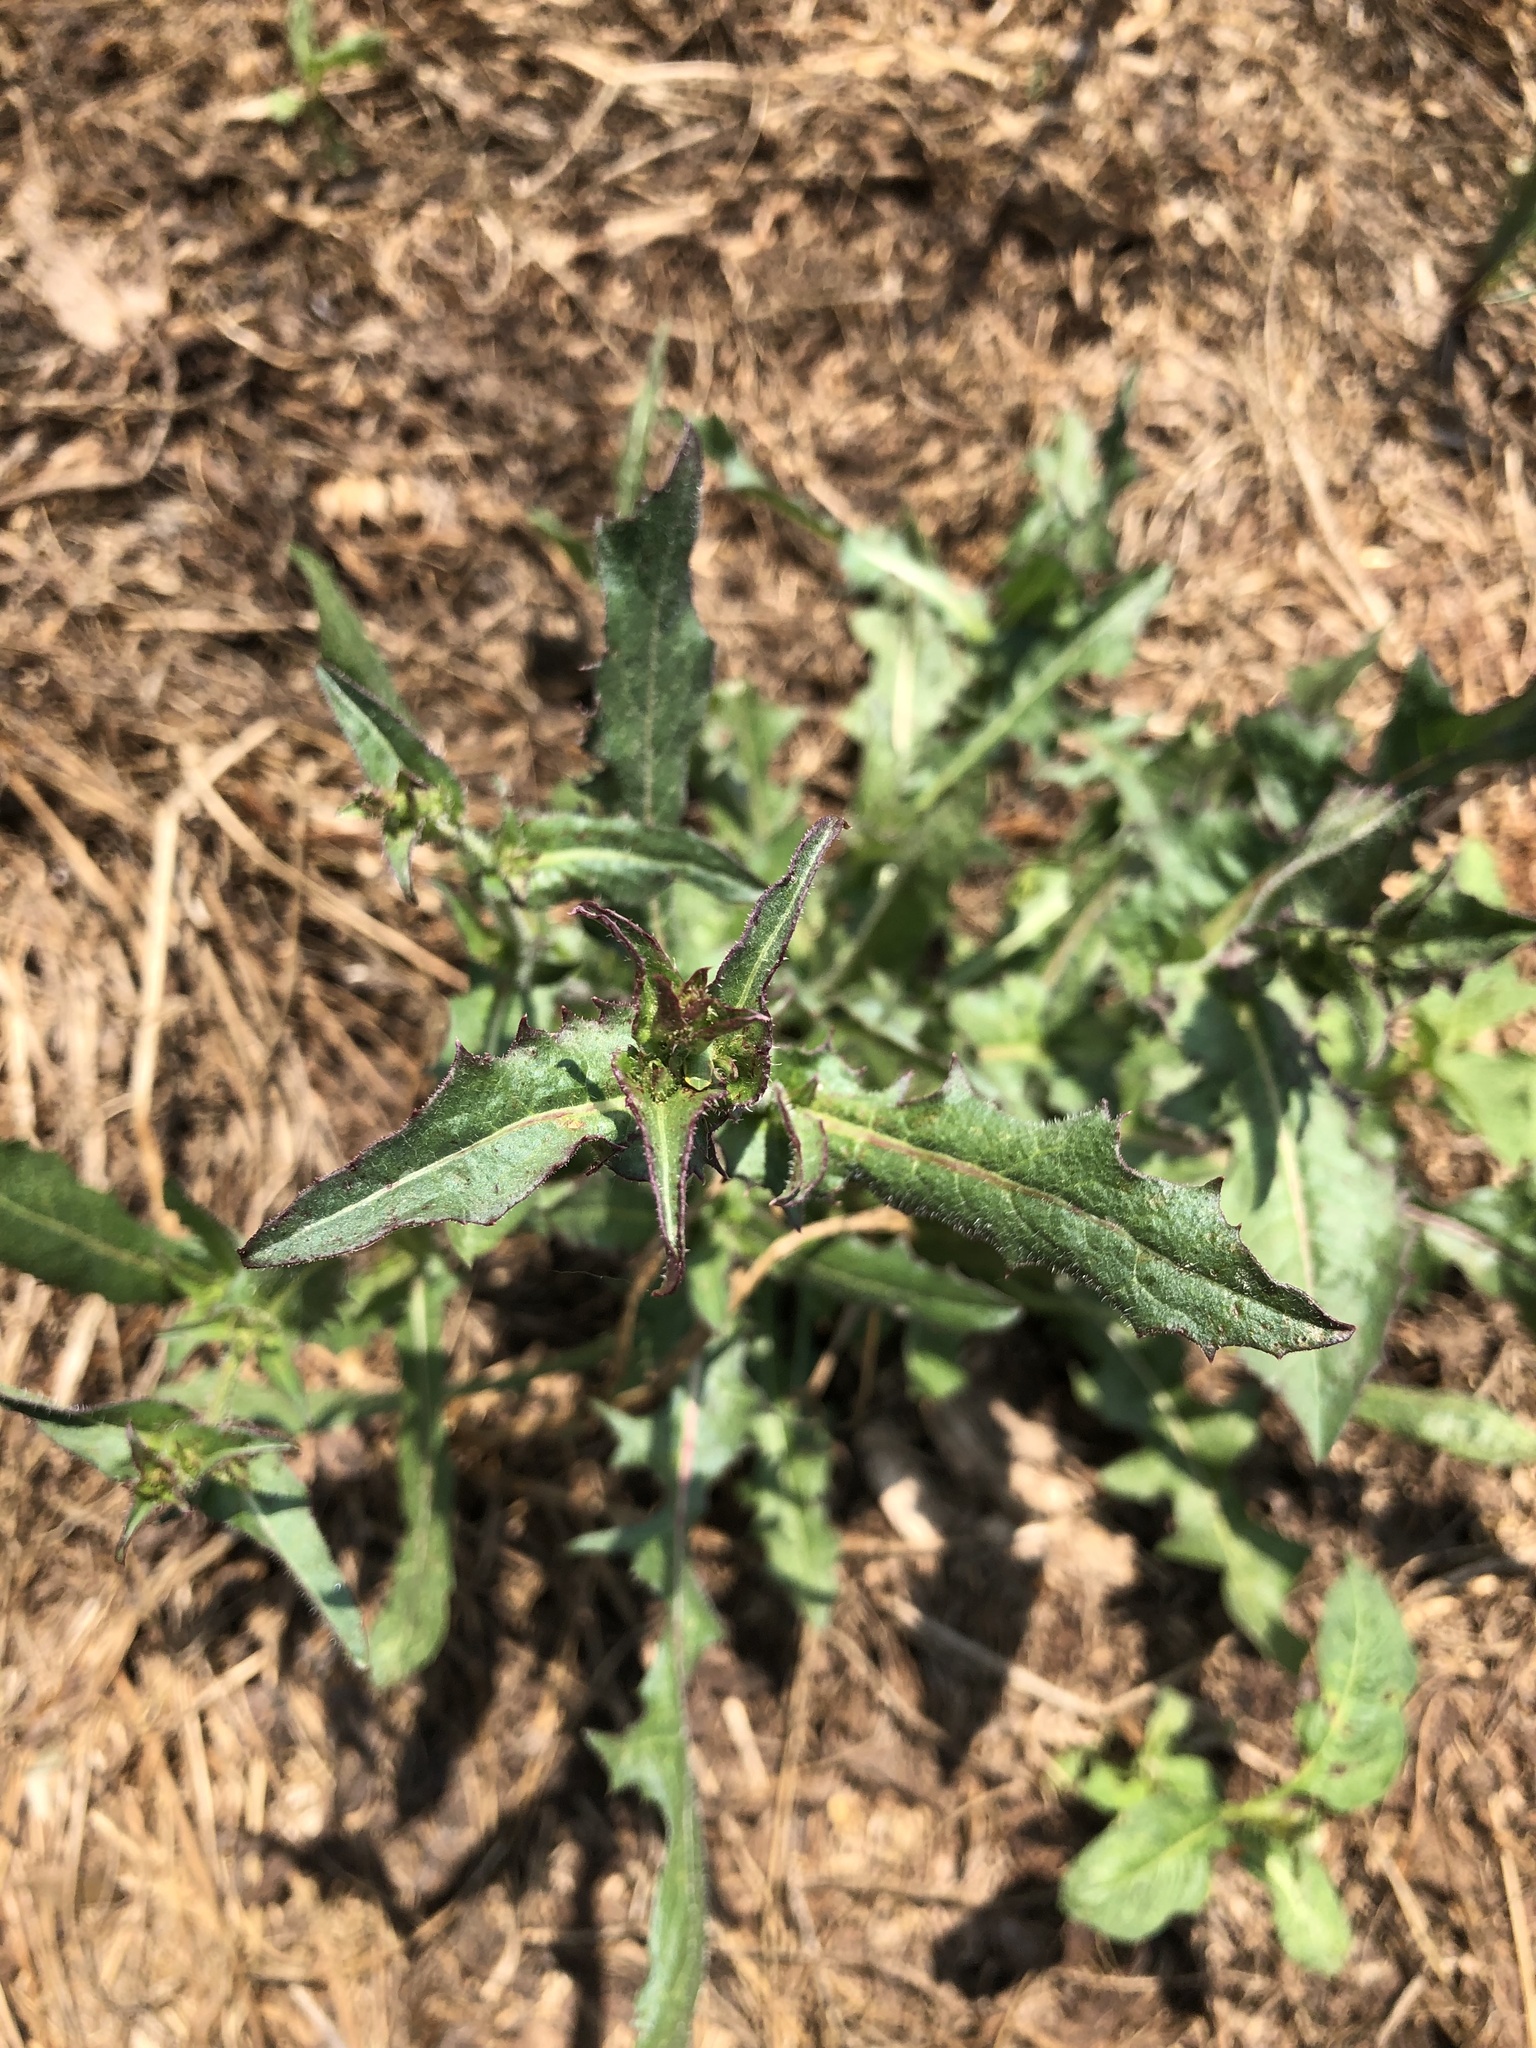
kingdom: Plantae
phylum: Tracheophyta
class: Magnoliopsida
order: Asterales
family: Asteraceae
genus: Cichorium
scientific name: Cichorium intybus
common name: Chicory
